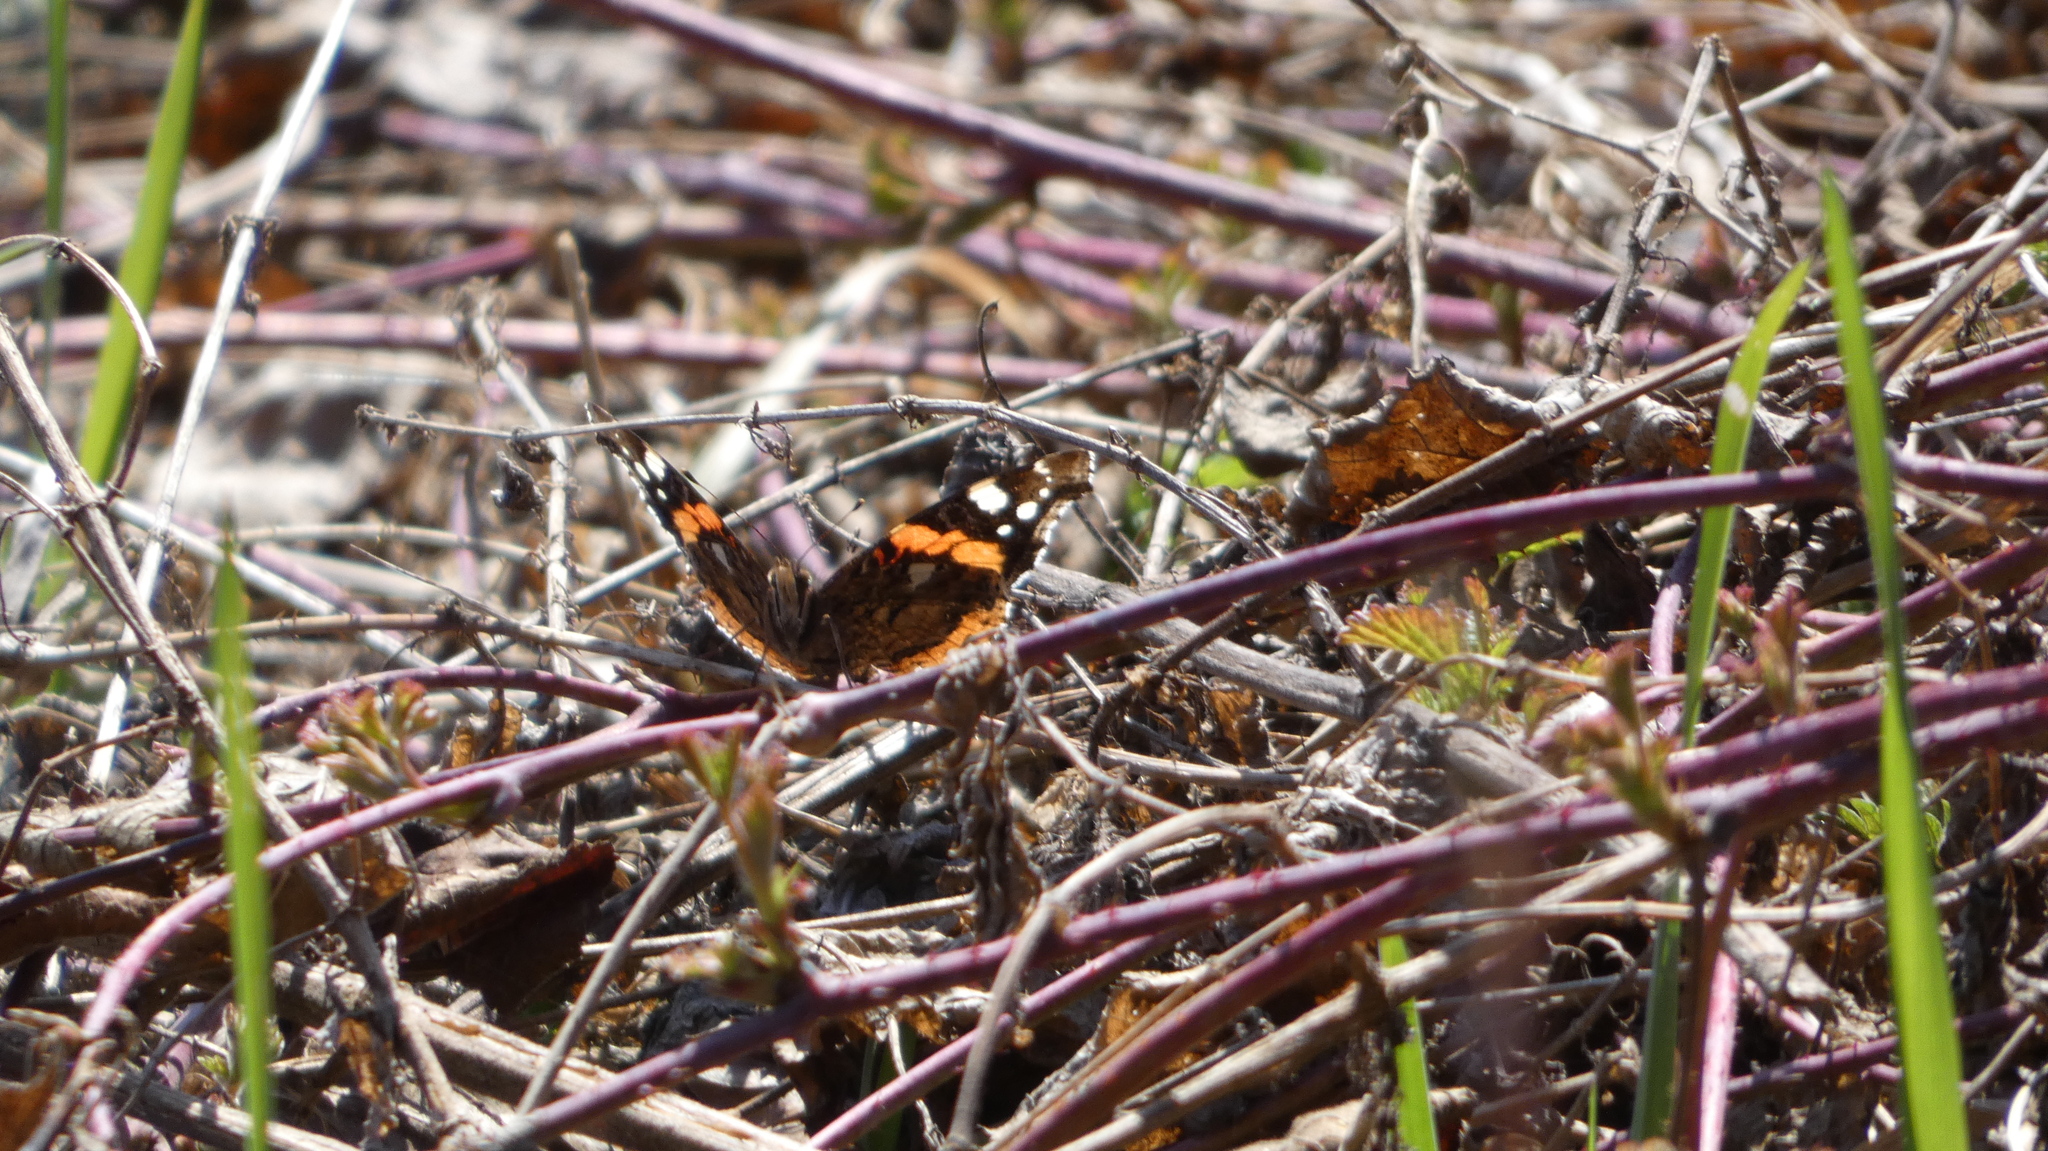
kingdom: Animalia
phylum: Arthropoda
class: Insecta
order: Lepidoptera
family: Nymphalidae
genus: Vanessa
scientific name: Vanessa atalanta
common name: Red admiral
